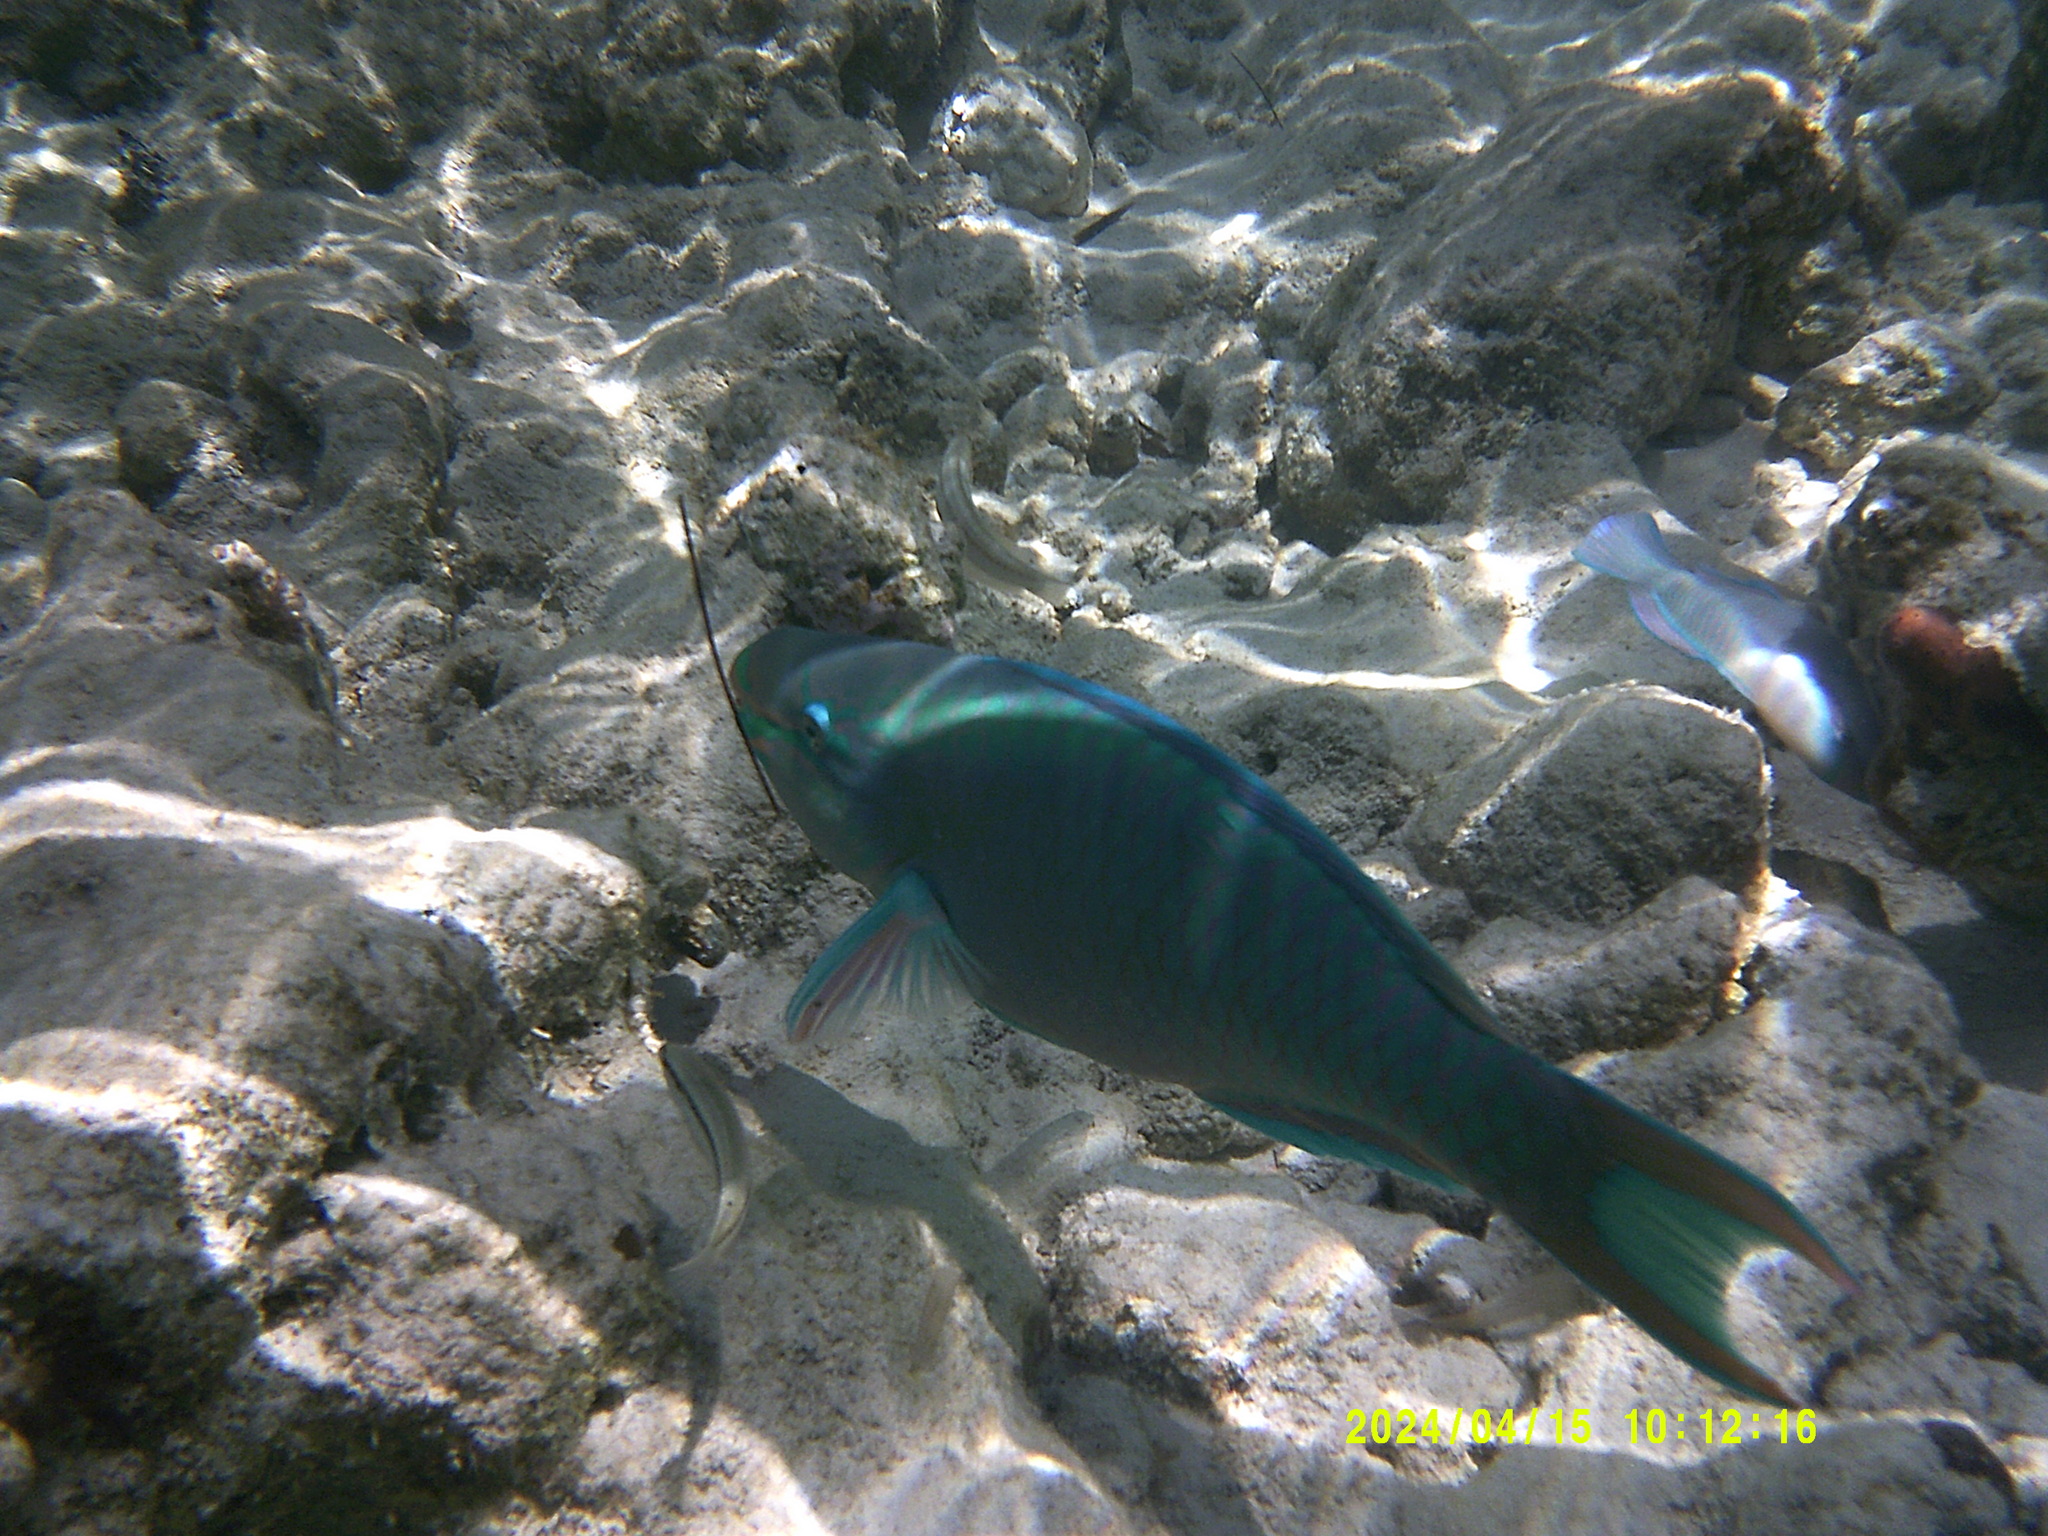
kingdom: Animalia
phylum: Chordata
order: Perciformes
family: Scaridae
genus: Scarus
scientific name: Scarus vetula
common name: Queen parrotfish
